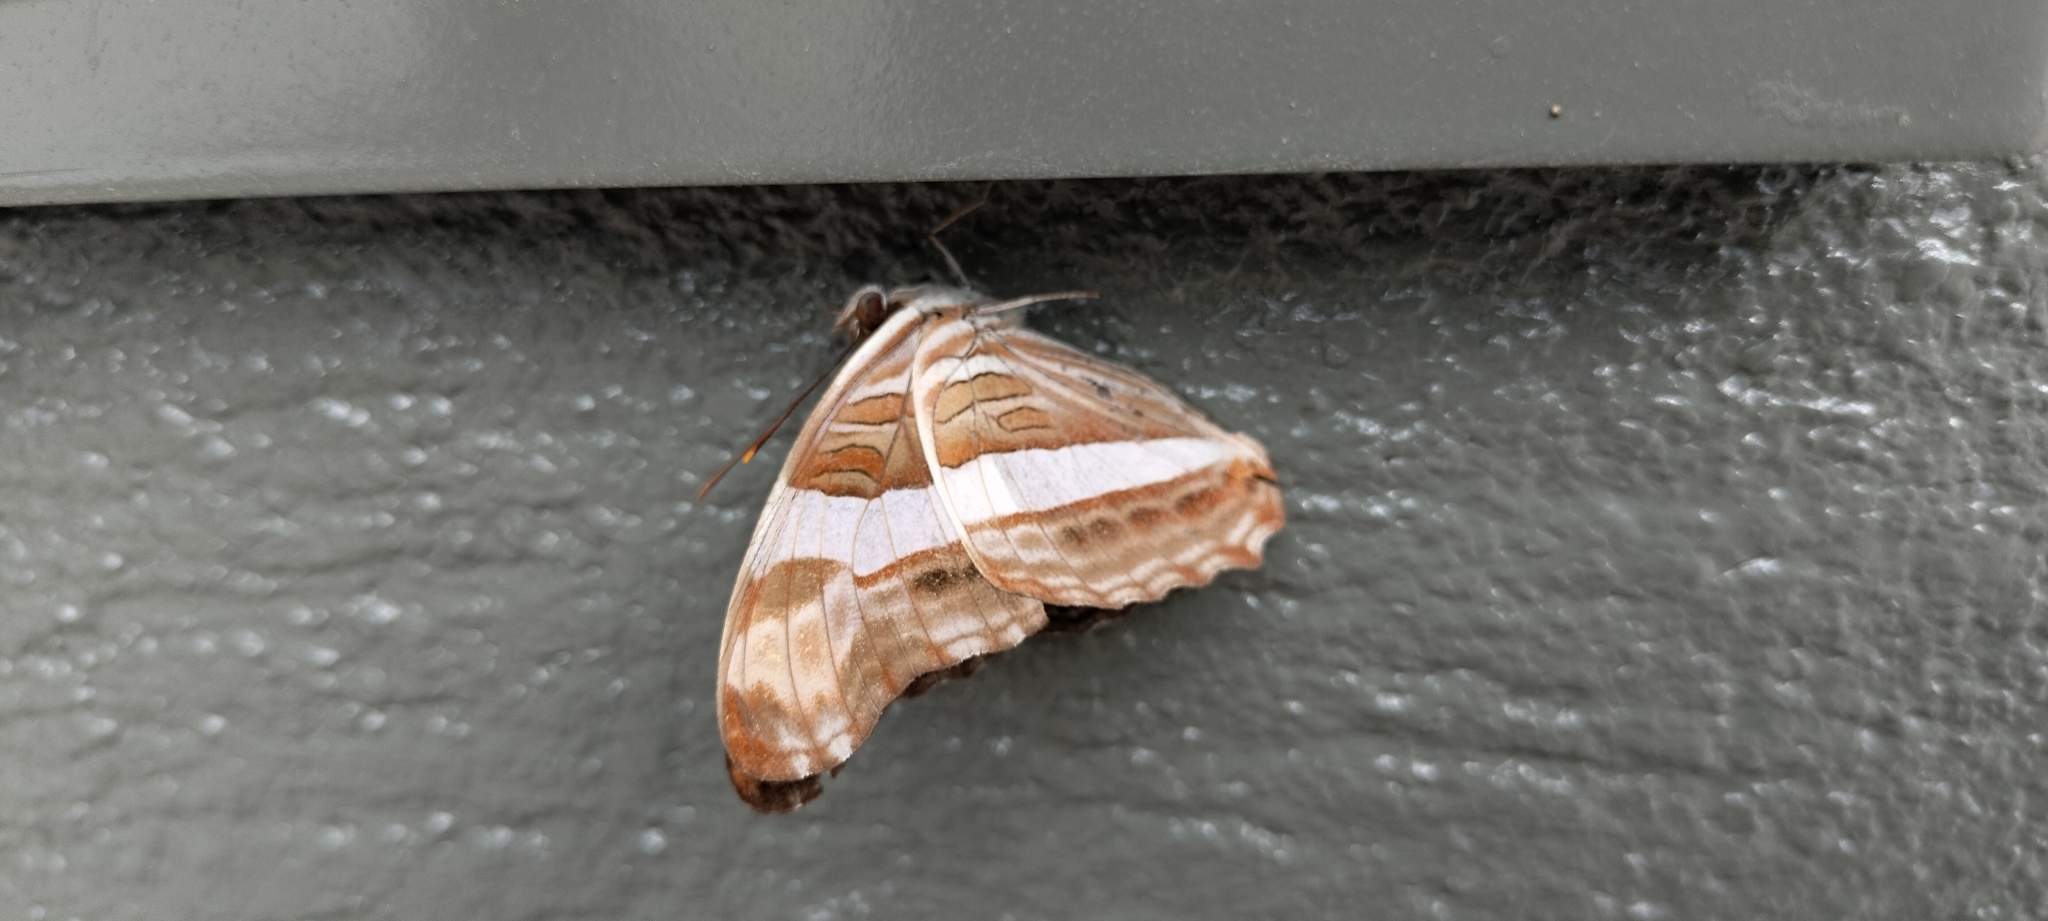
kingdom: Animalia
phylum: Arthropoda
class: Insecta
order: Lepidoptera
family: Nymphalidae
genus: Limenitis
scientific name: Limenitis fessonia
